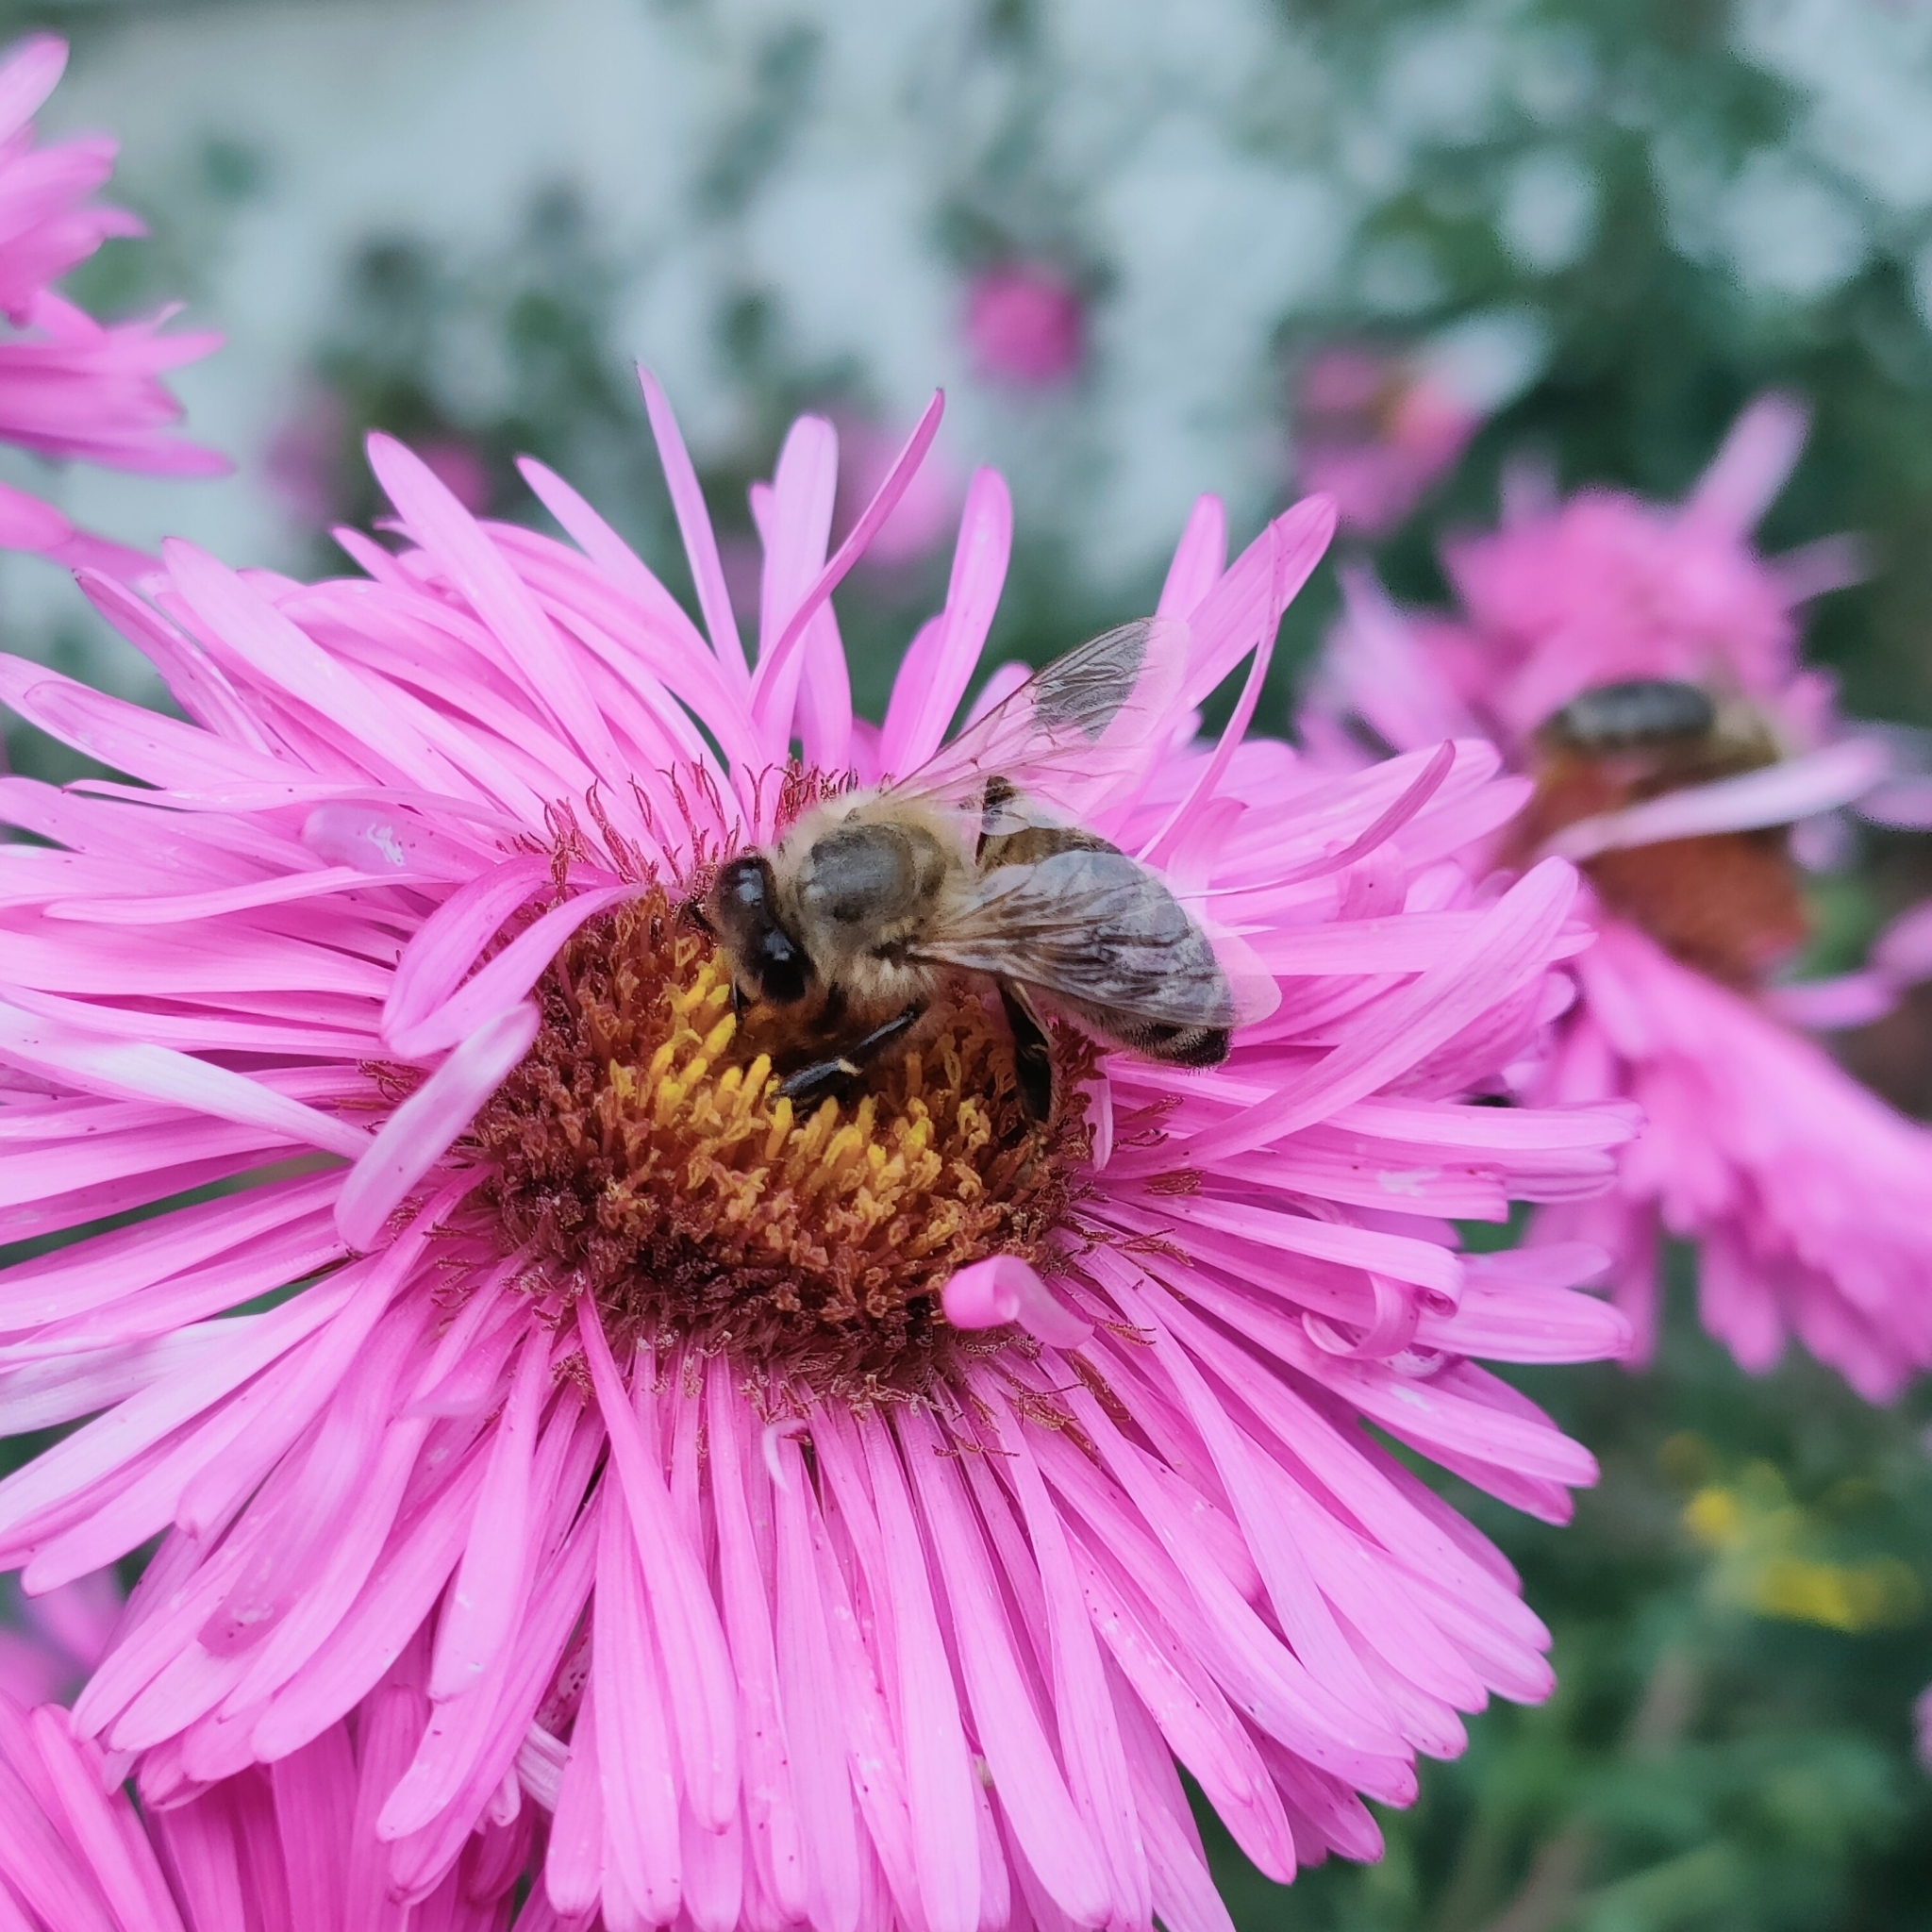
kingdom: Animalia
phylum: Arthropoda
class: Insecta
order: Hymenoptera
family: Apidae
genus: Apis
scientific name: Apis mellifera
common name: Honey bee
